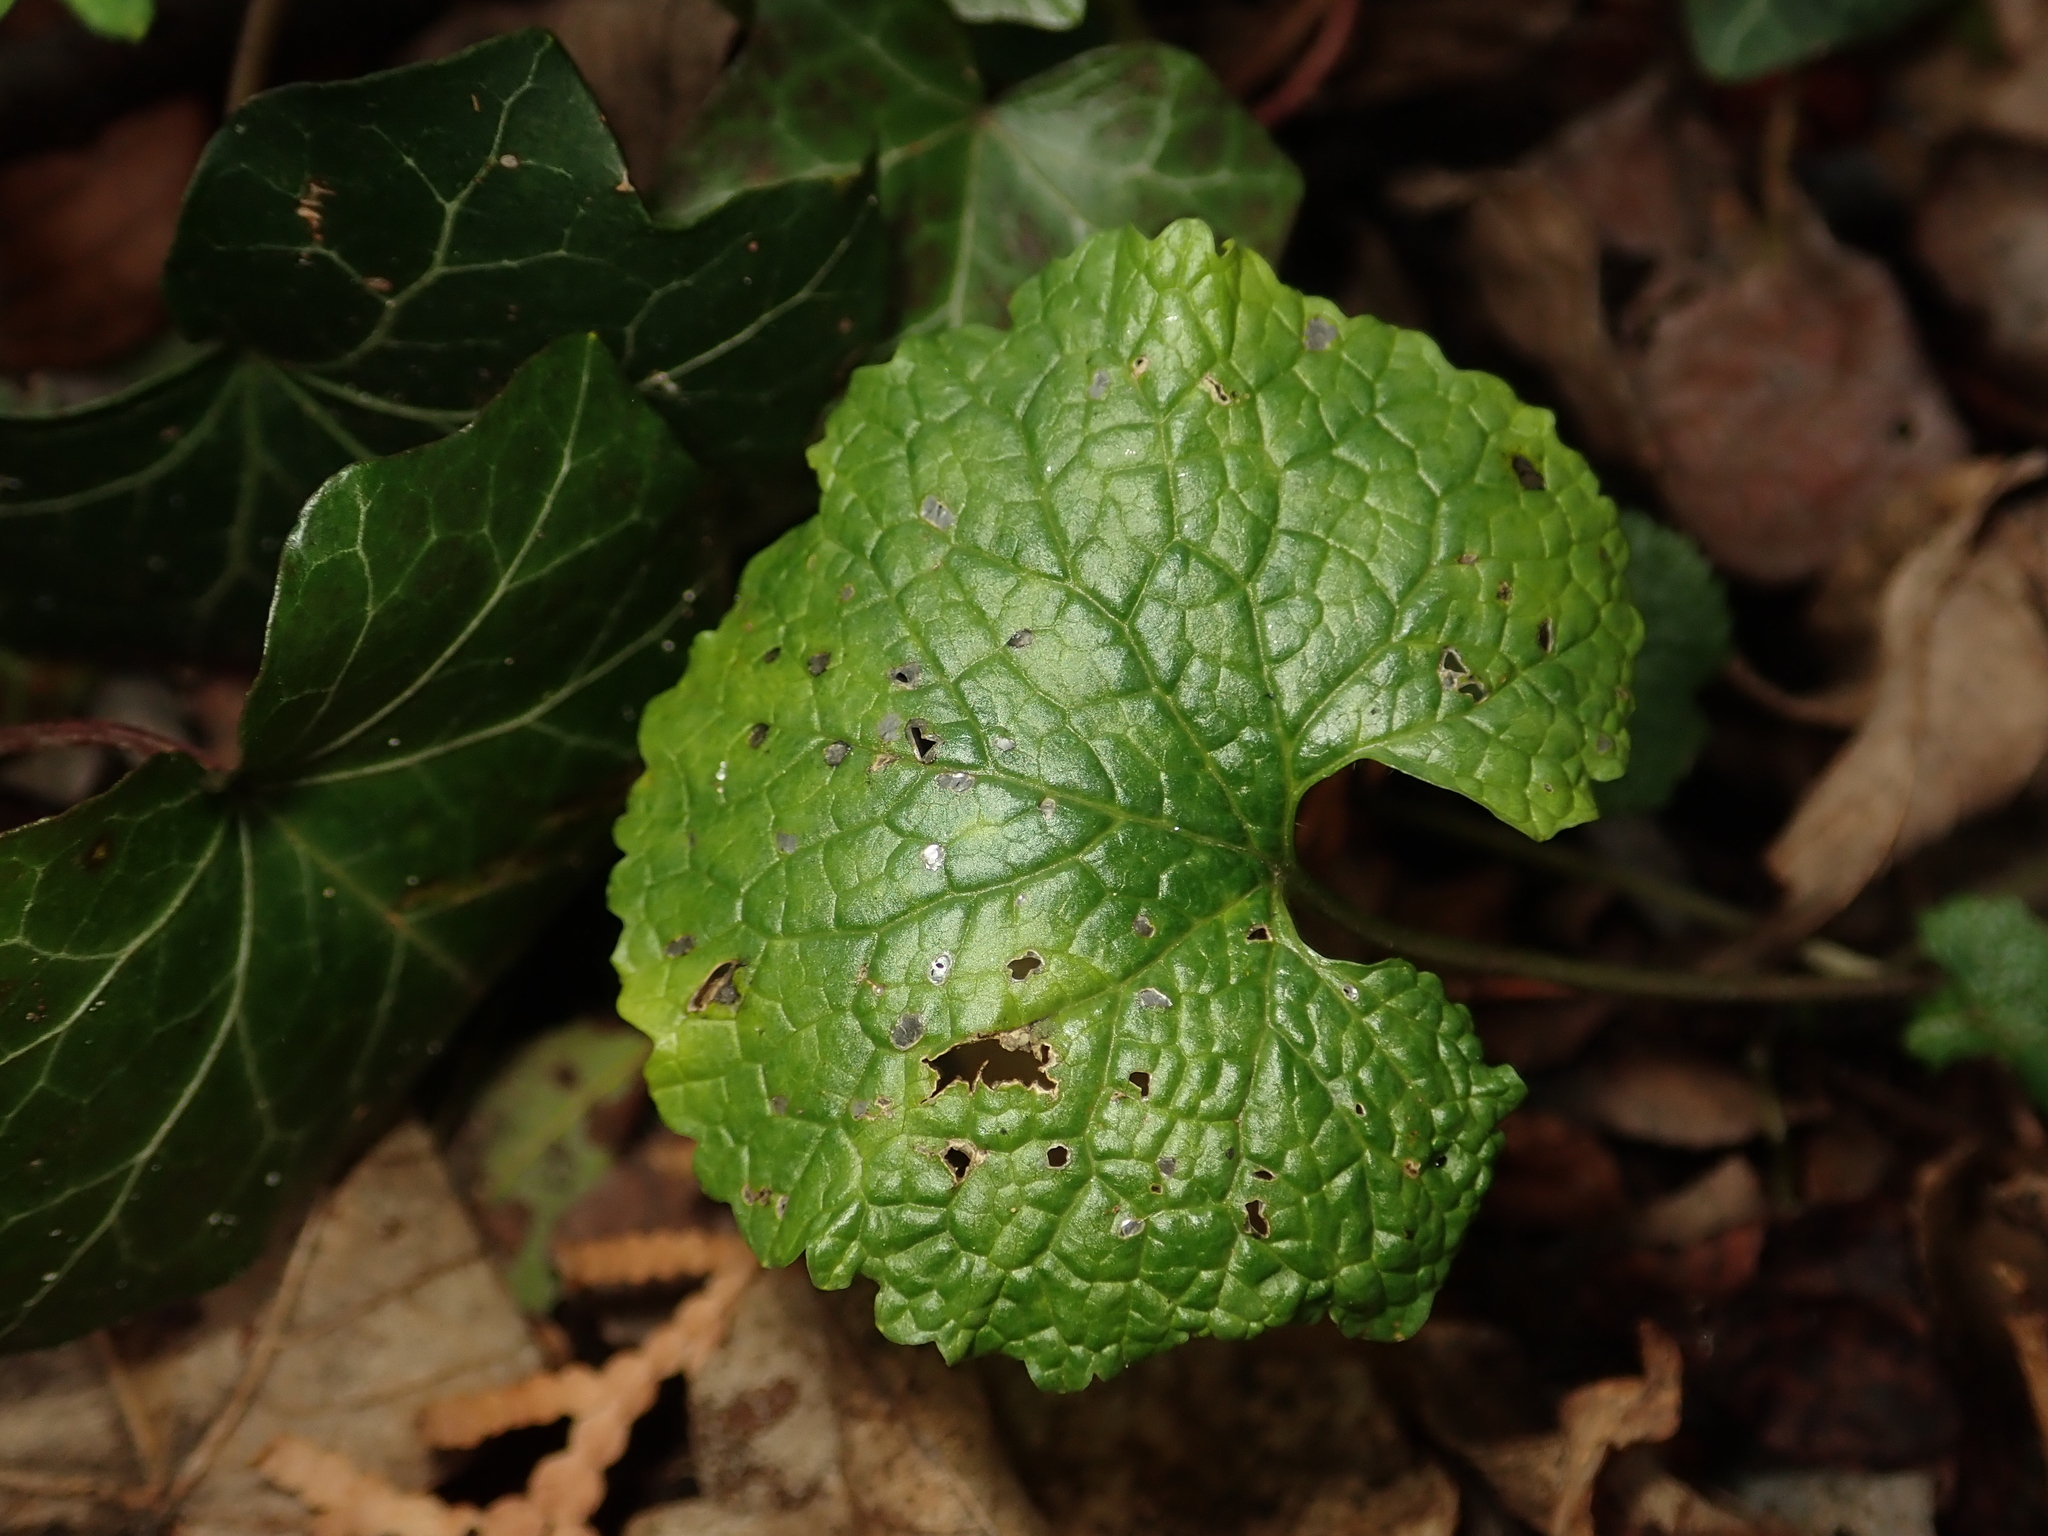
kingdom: Plantae
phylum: Tracheophyta
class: Magnoliopsida
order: Brassicales
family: Brassicaceae
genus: Alliaria
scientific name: Alliaria petiolata
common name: Garlic mustard
